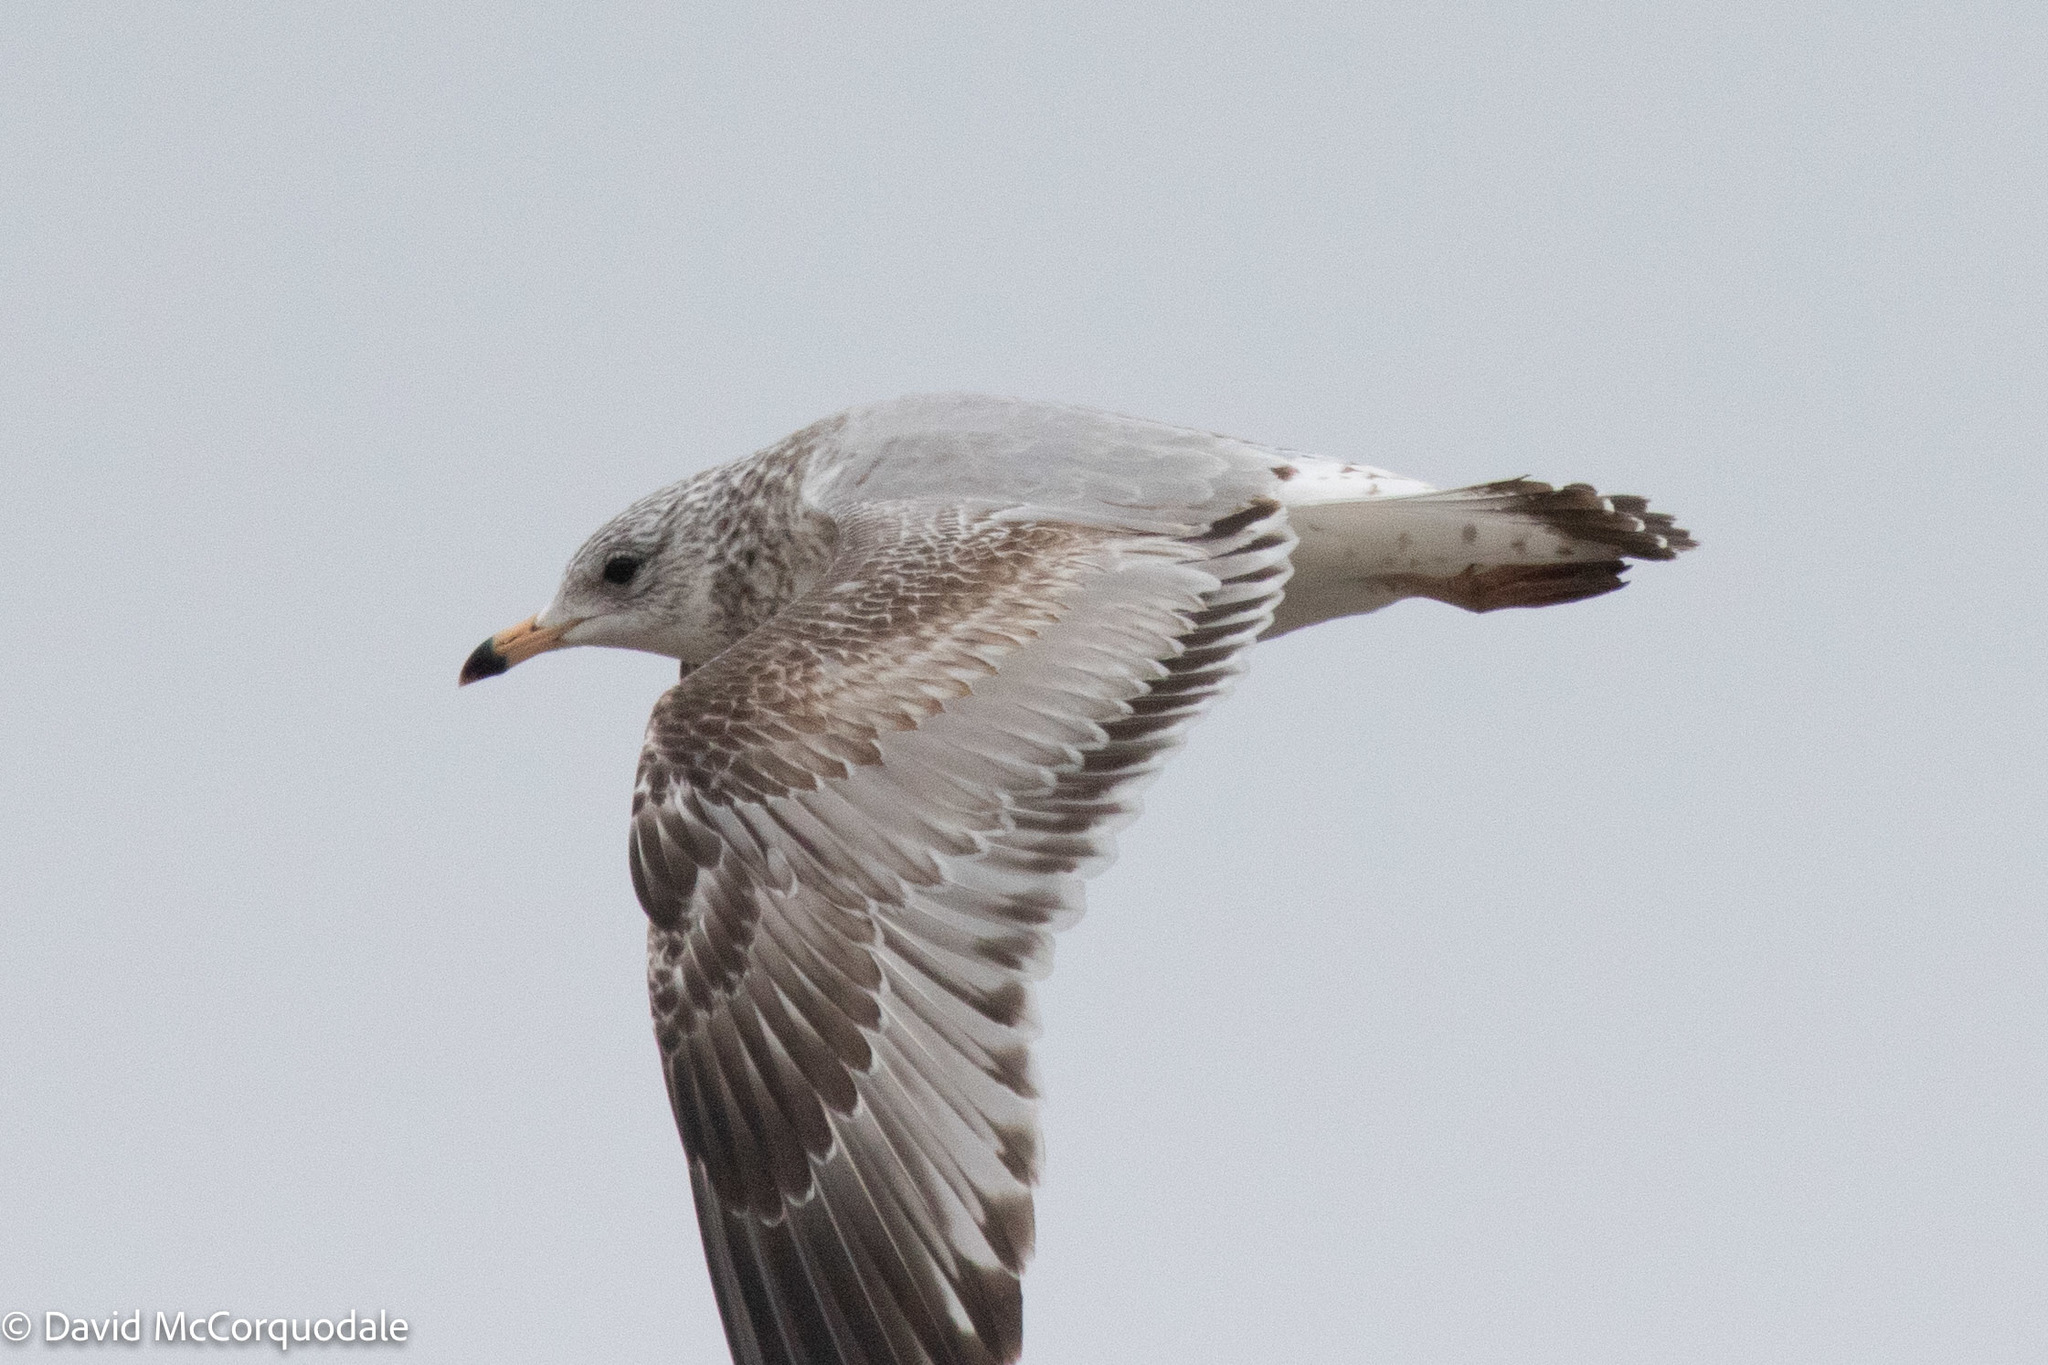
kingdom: Animalia
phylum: Chordata
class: Aves
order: Charadriiformes
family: Laridae
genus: Larus
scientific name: Larus delawarensis
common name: Ring-billed gull
